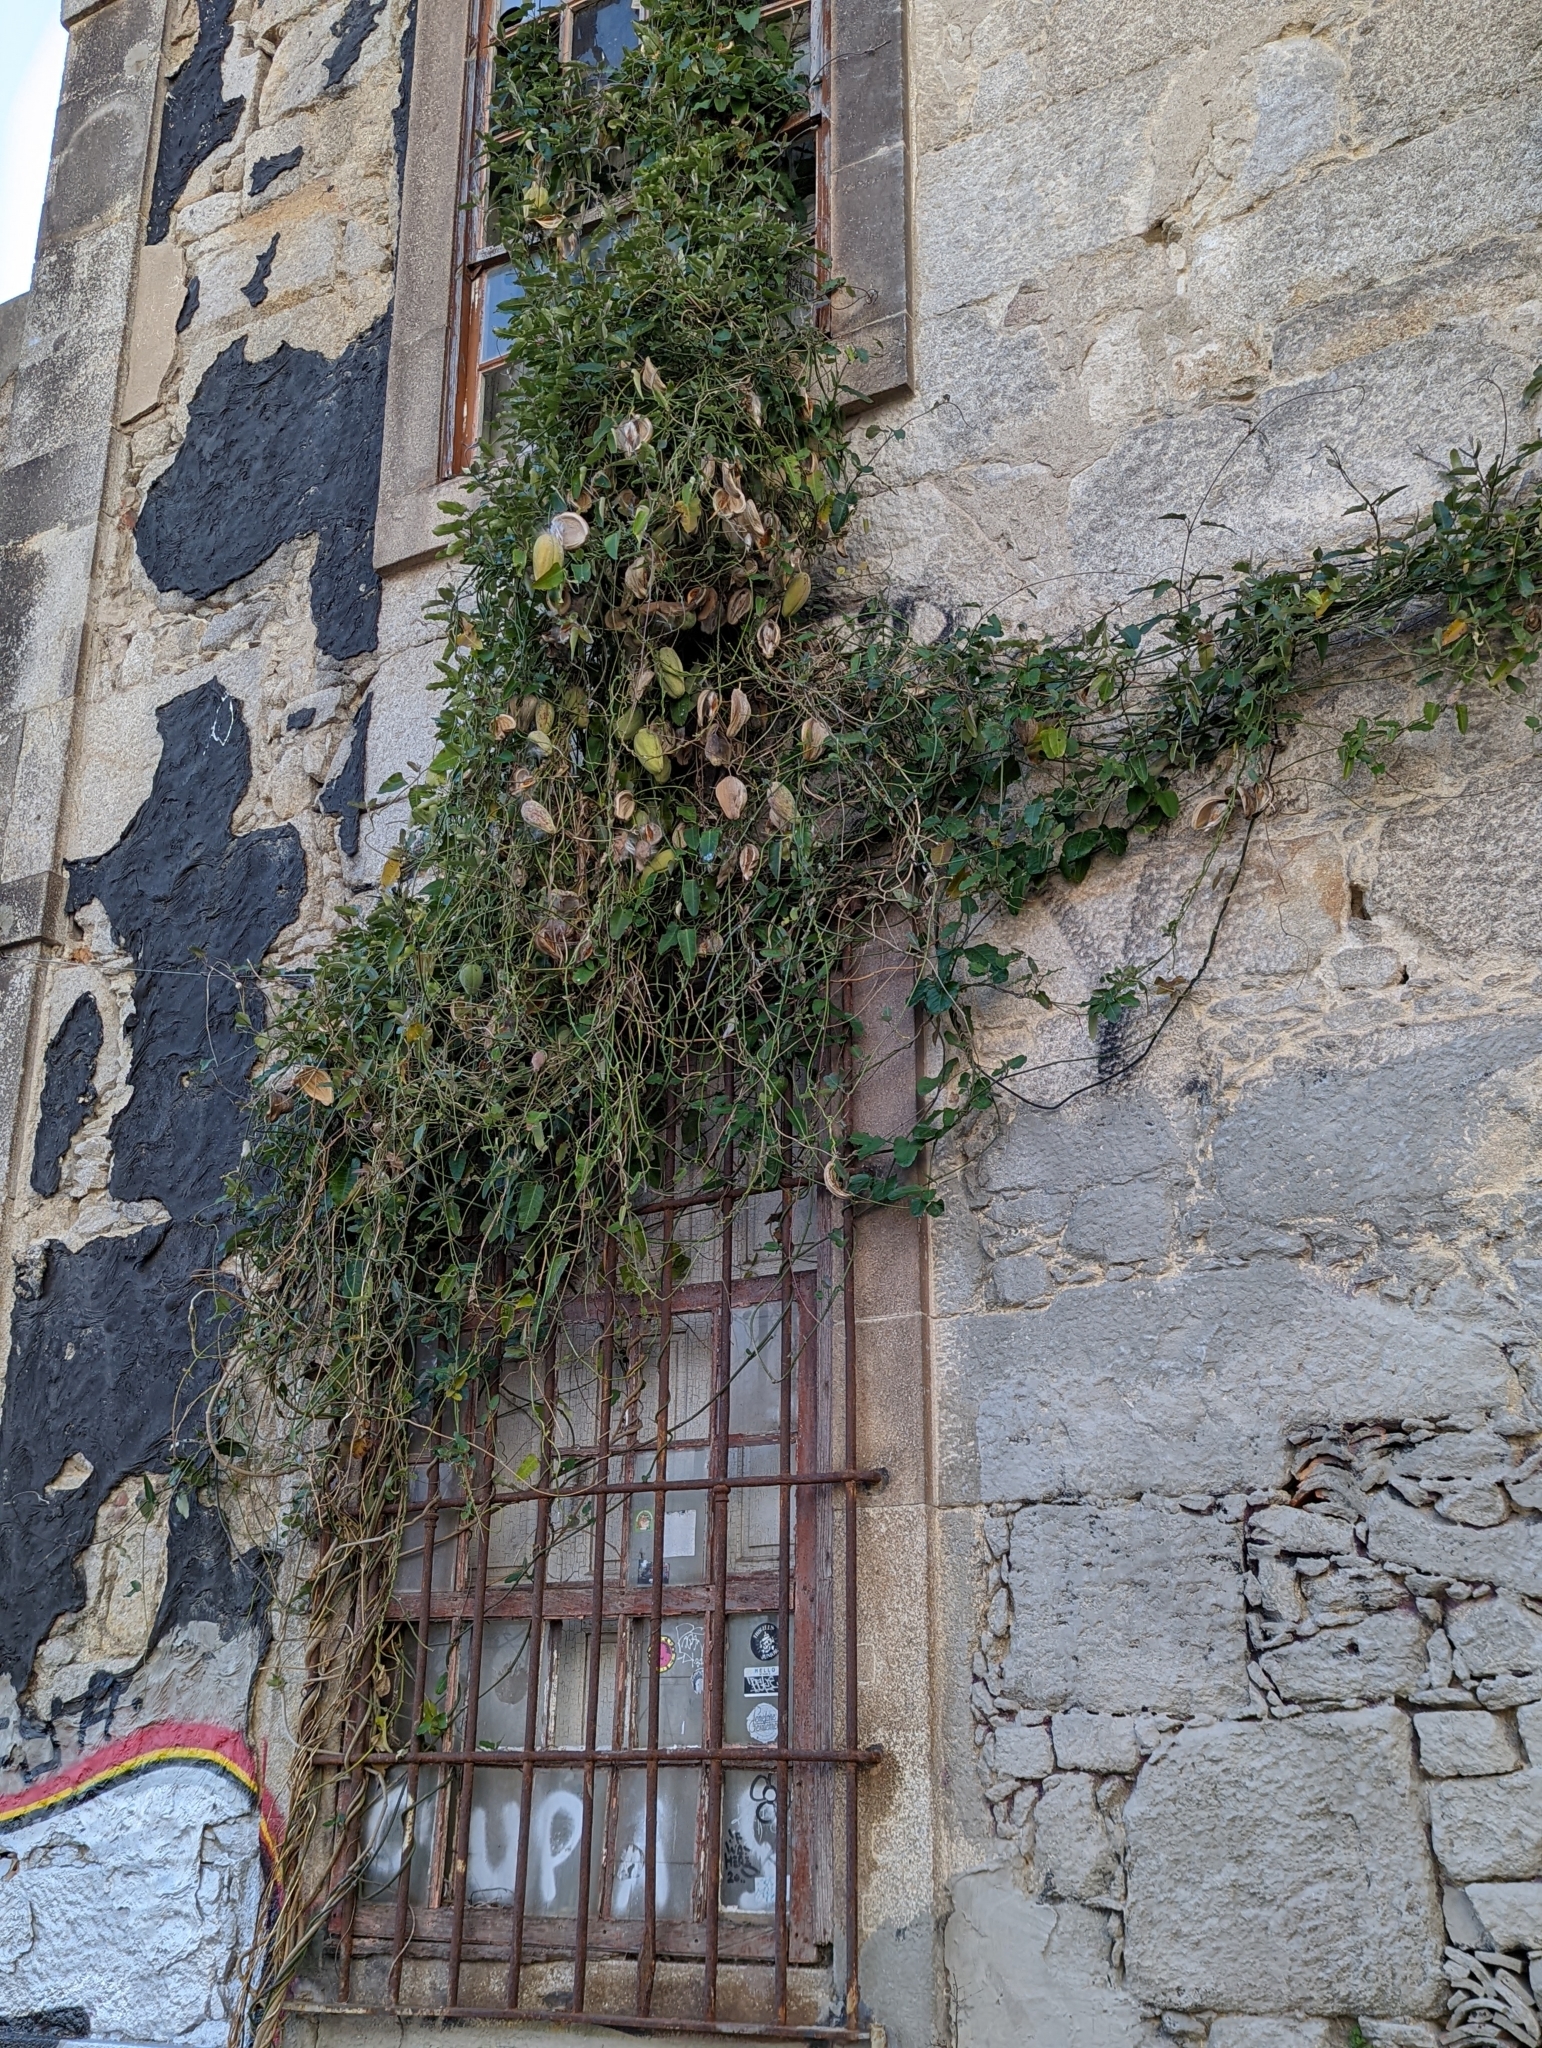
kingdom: Plantae
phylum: Tracheophyta
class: Magnoliopsida
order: Gentianales
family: Apocynaceae
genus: Araujia
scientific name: Araujia sericifera
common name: White bladderflower
